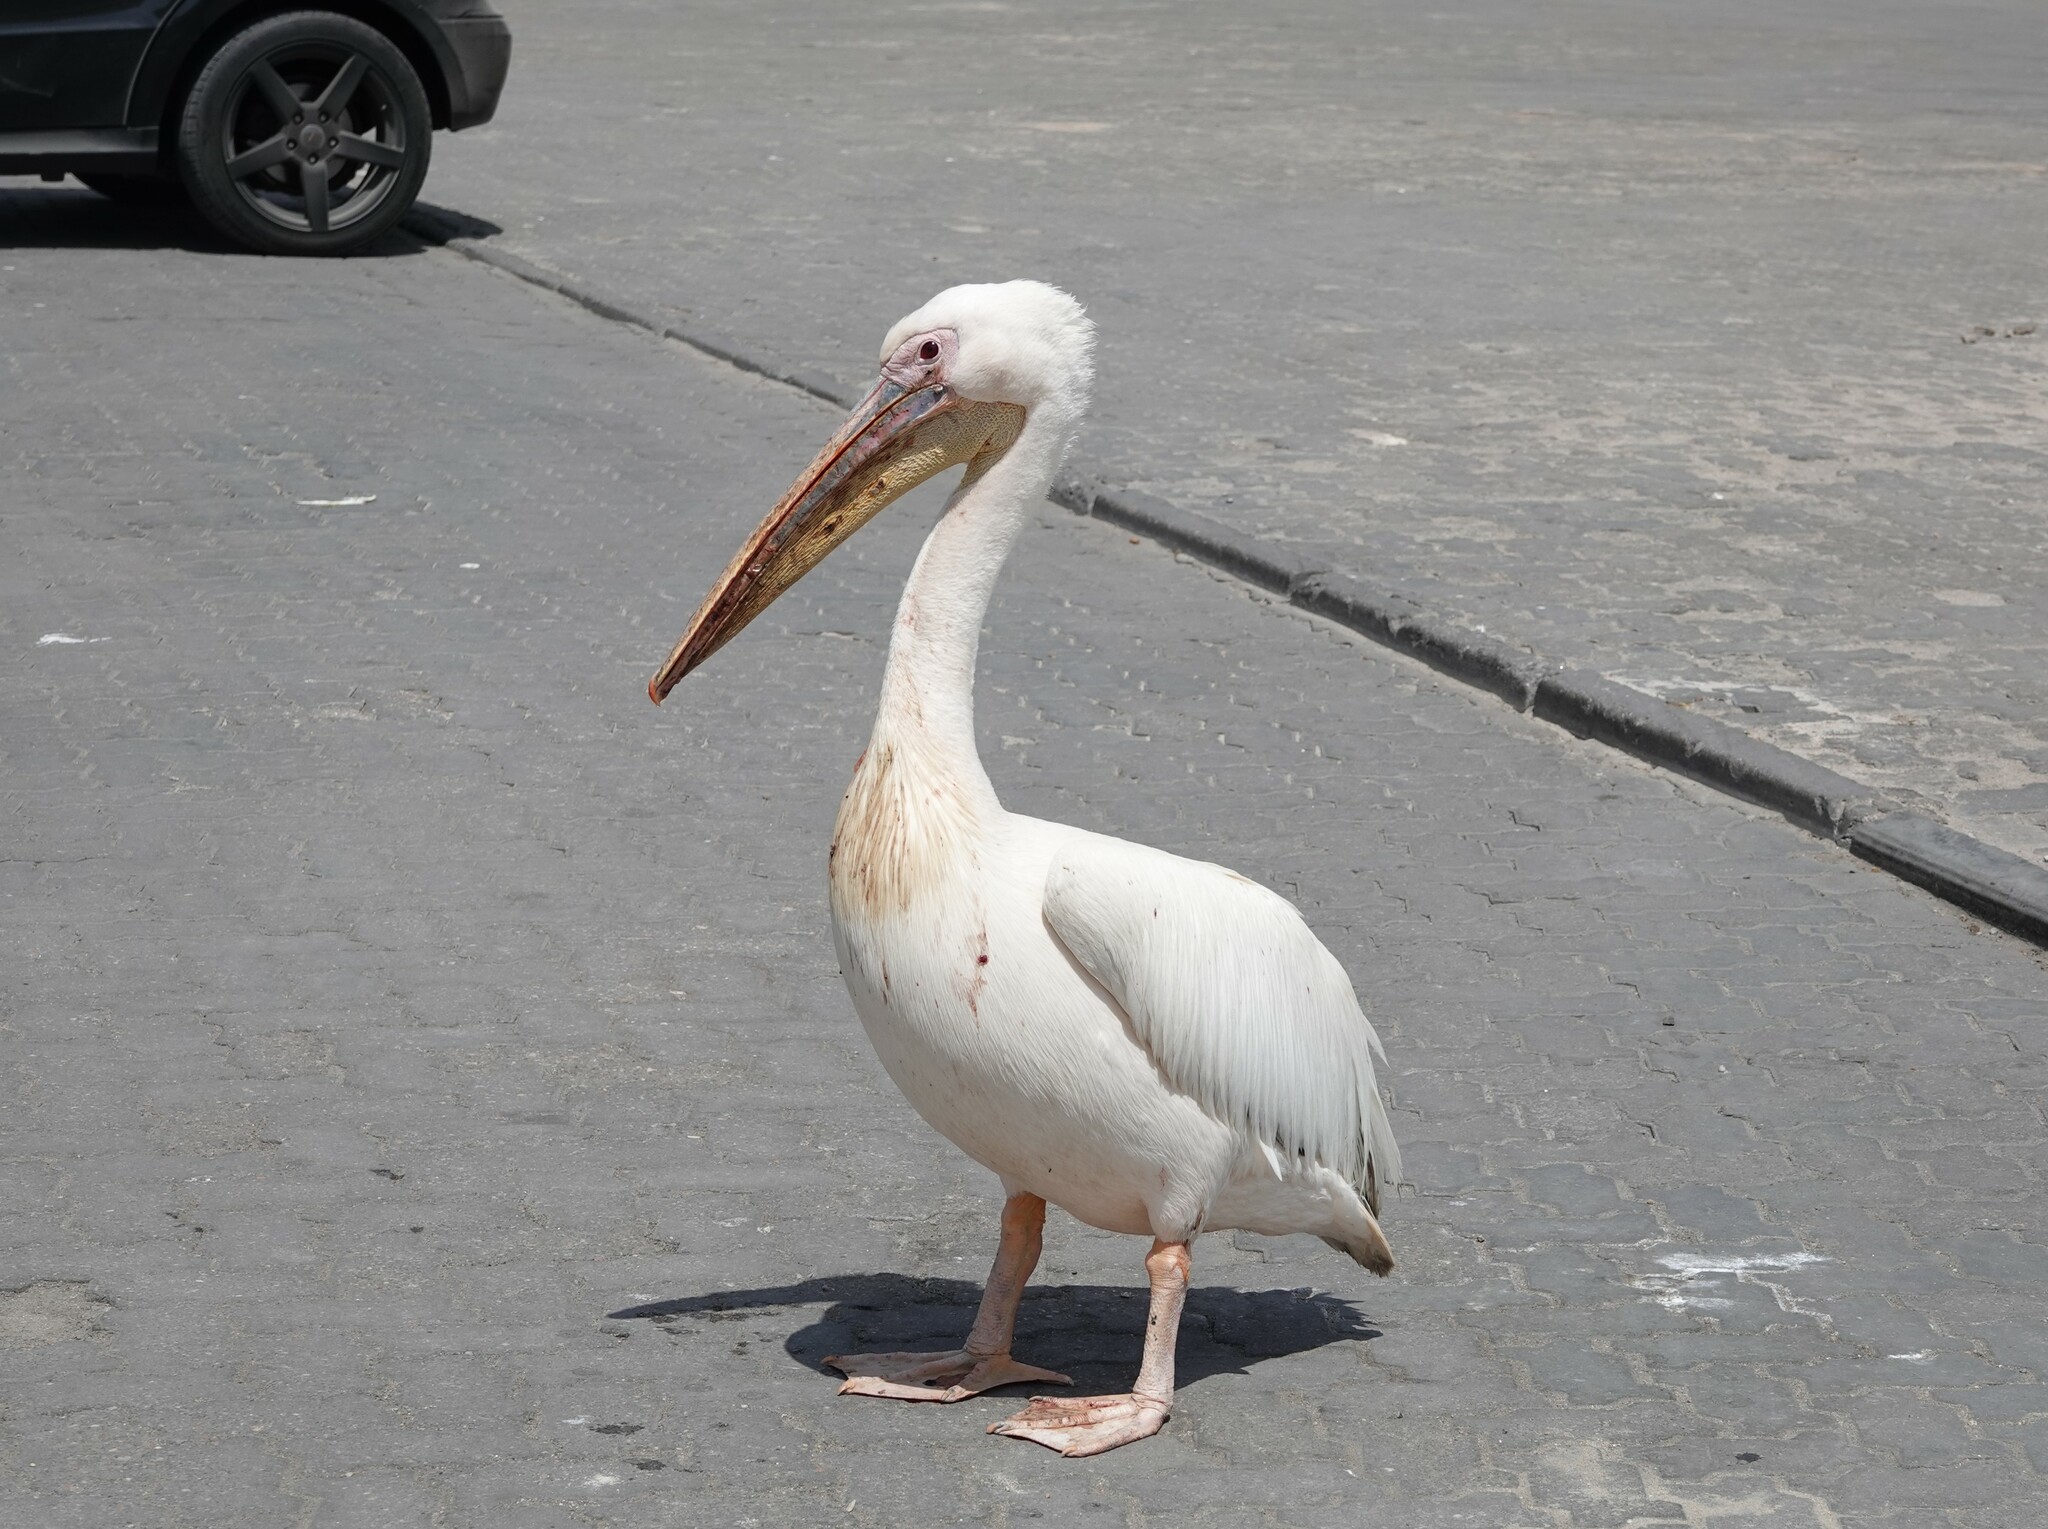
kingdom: Animalia
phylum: Chordata
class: Aves
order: Pelecaniformes
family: Pelecanidae
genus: Pelecanus
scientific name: Pelecanus onocrotalus
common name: Great white pelican
